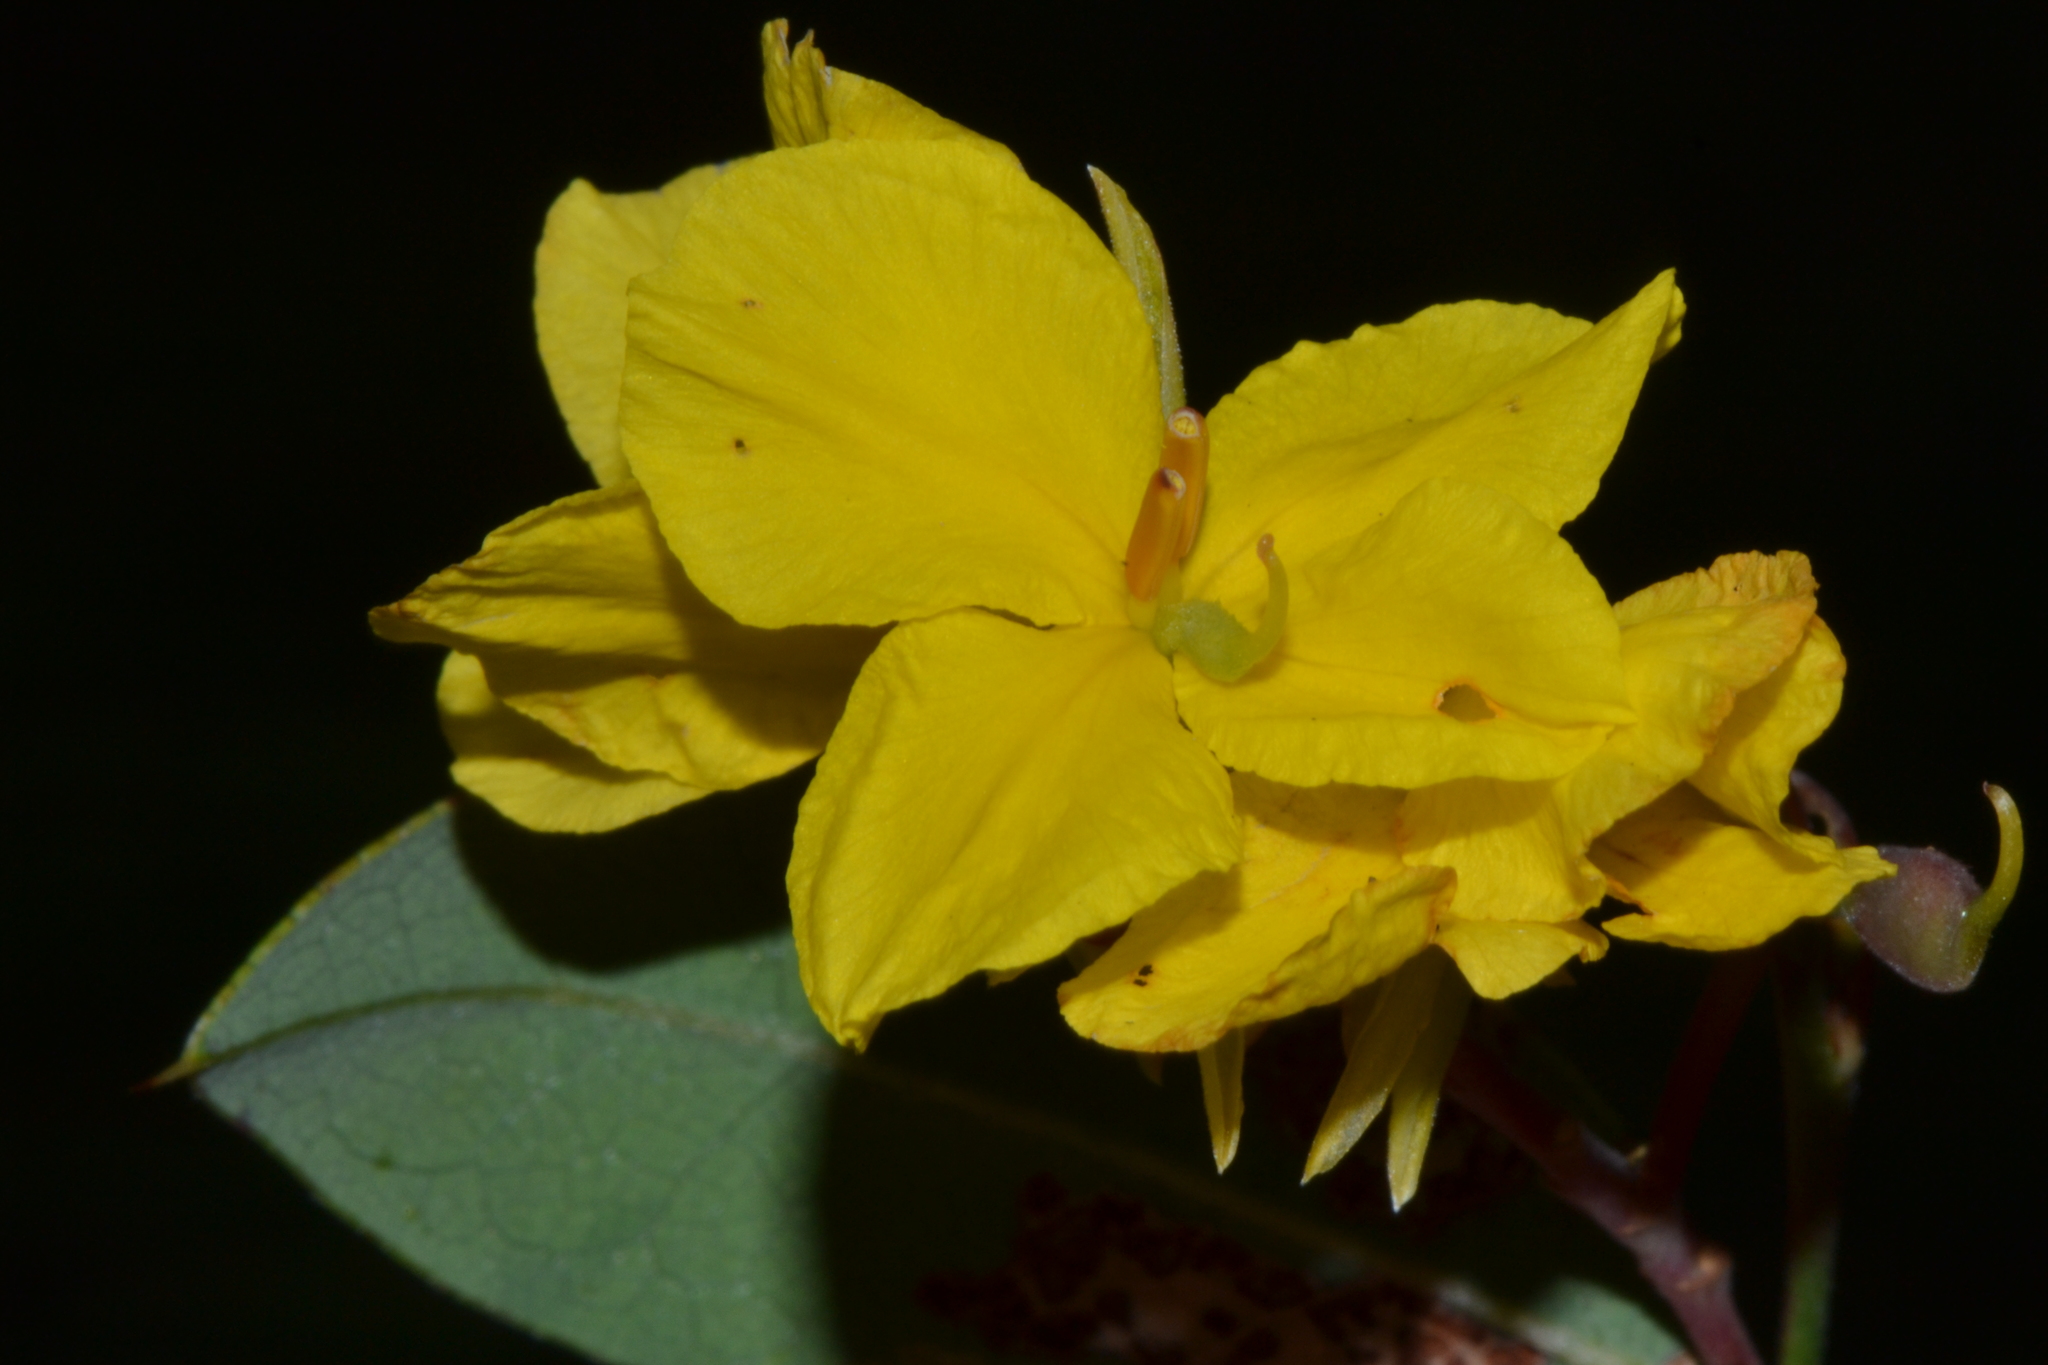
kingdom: Plantae
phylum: Tracheophyta
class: Magnoliopsida
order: Fabales
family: Fabaceae
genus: Labichea
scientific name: Labichea punctata
